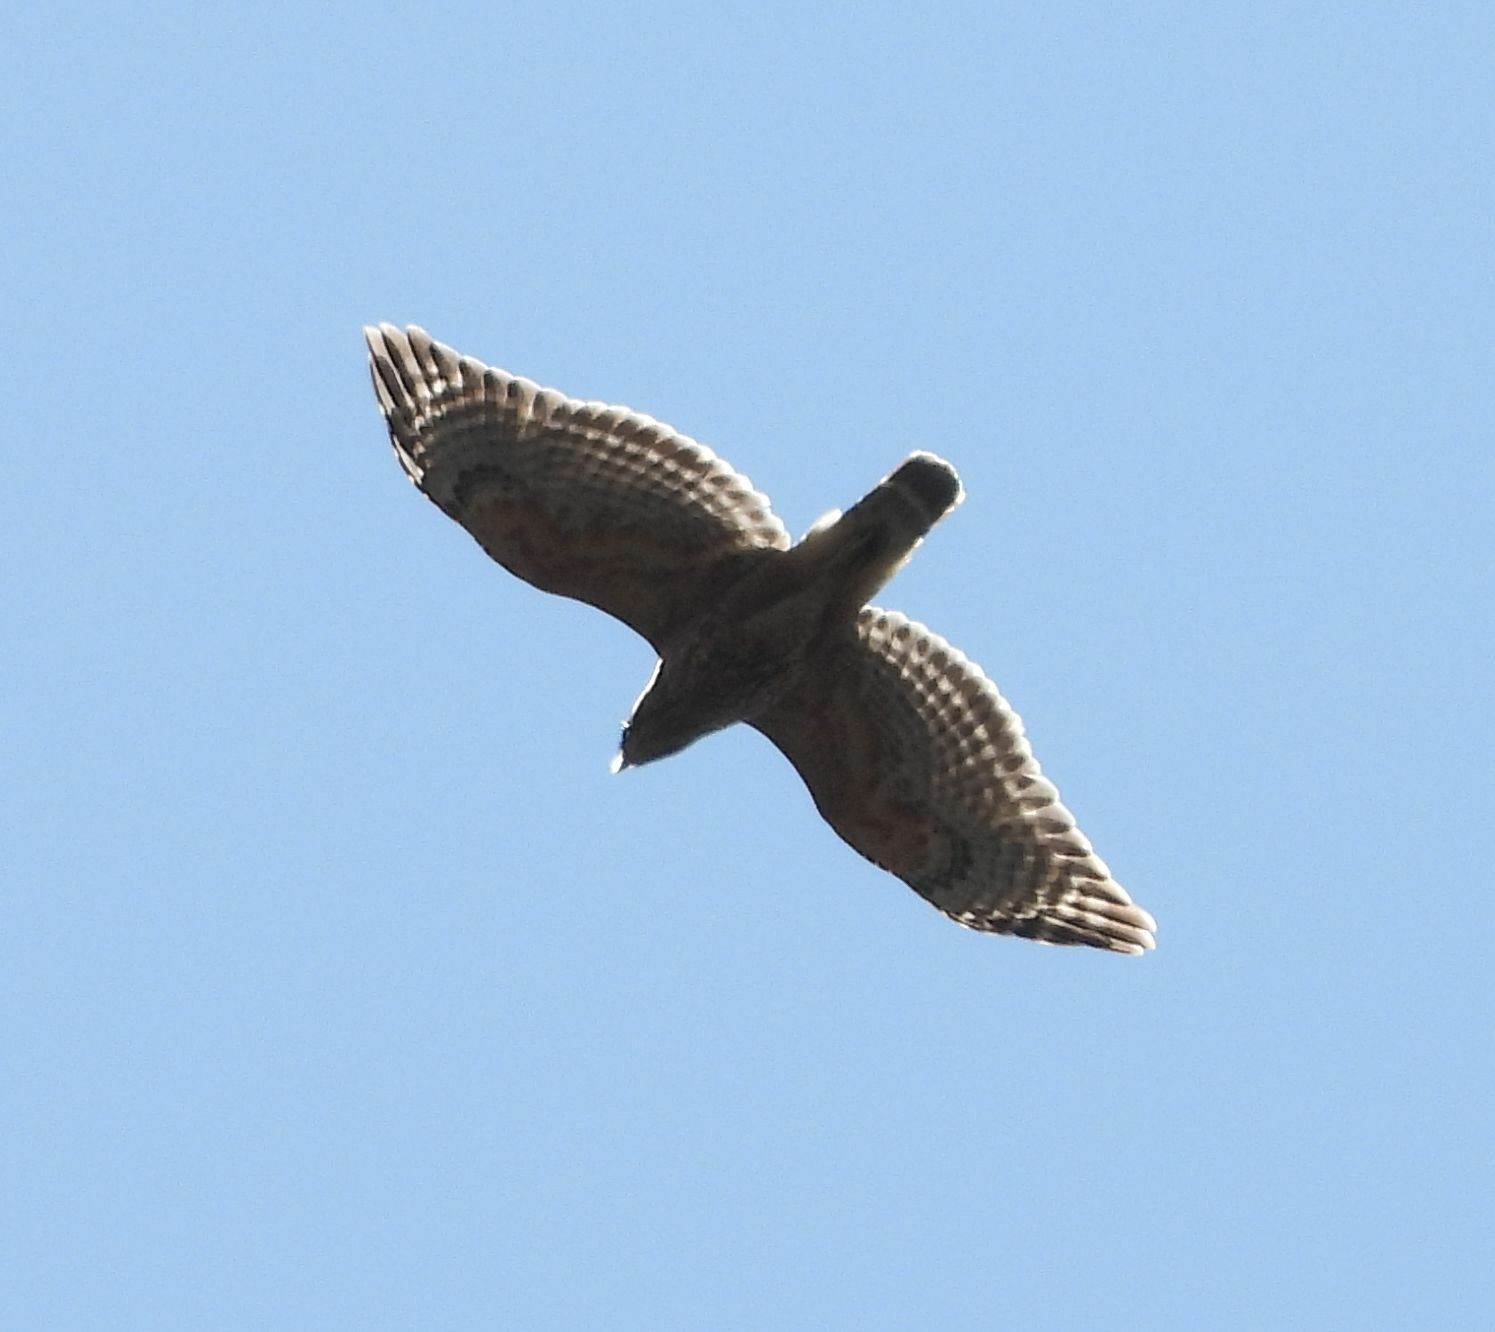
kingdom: Animalia
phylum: Chordata
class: Aves
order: Accipitriformes
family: Accipitridae
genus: Buteo
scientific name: Buteo lineatus
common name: Red-shouldered hawk
